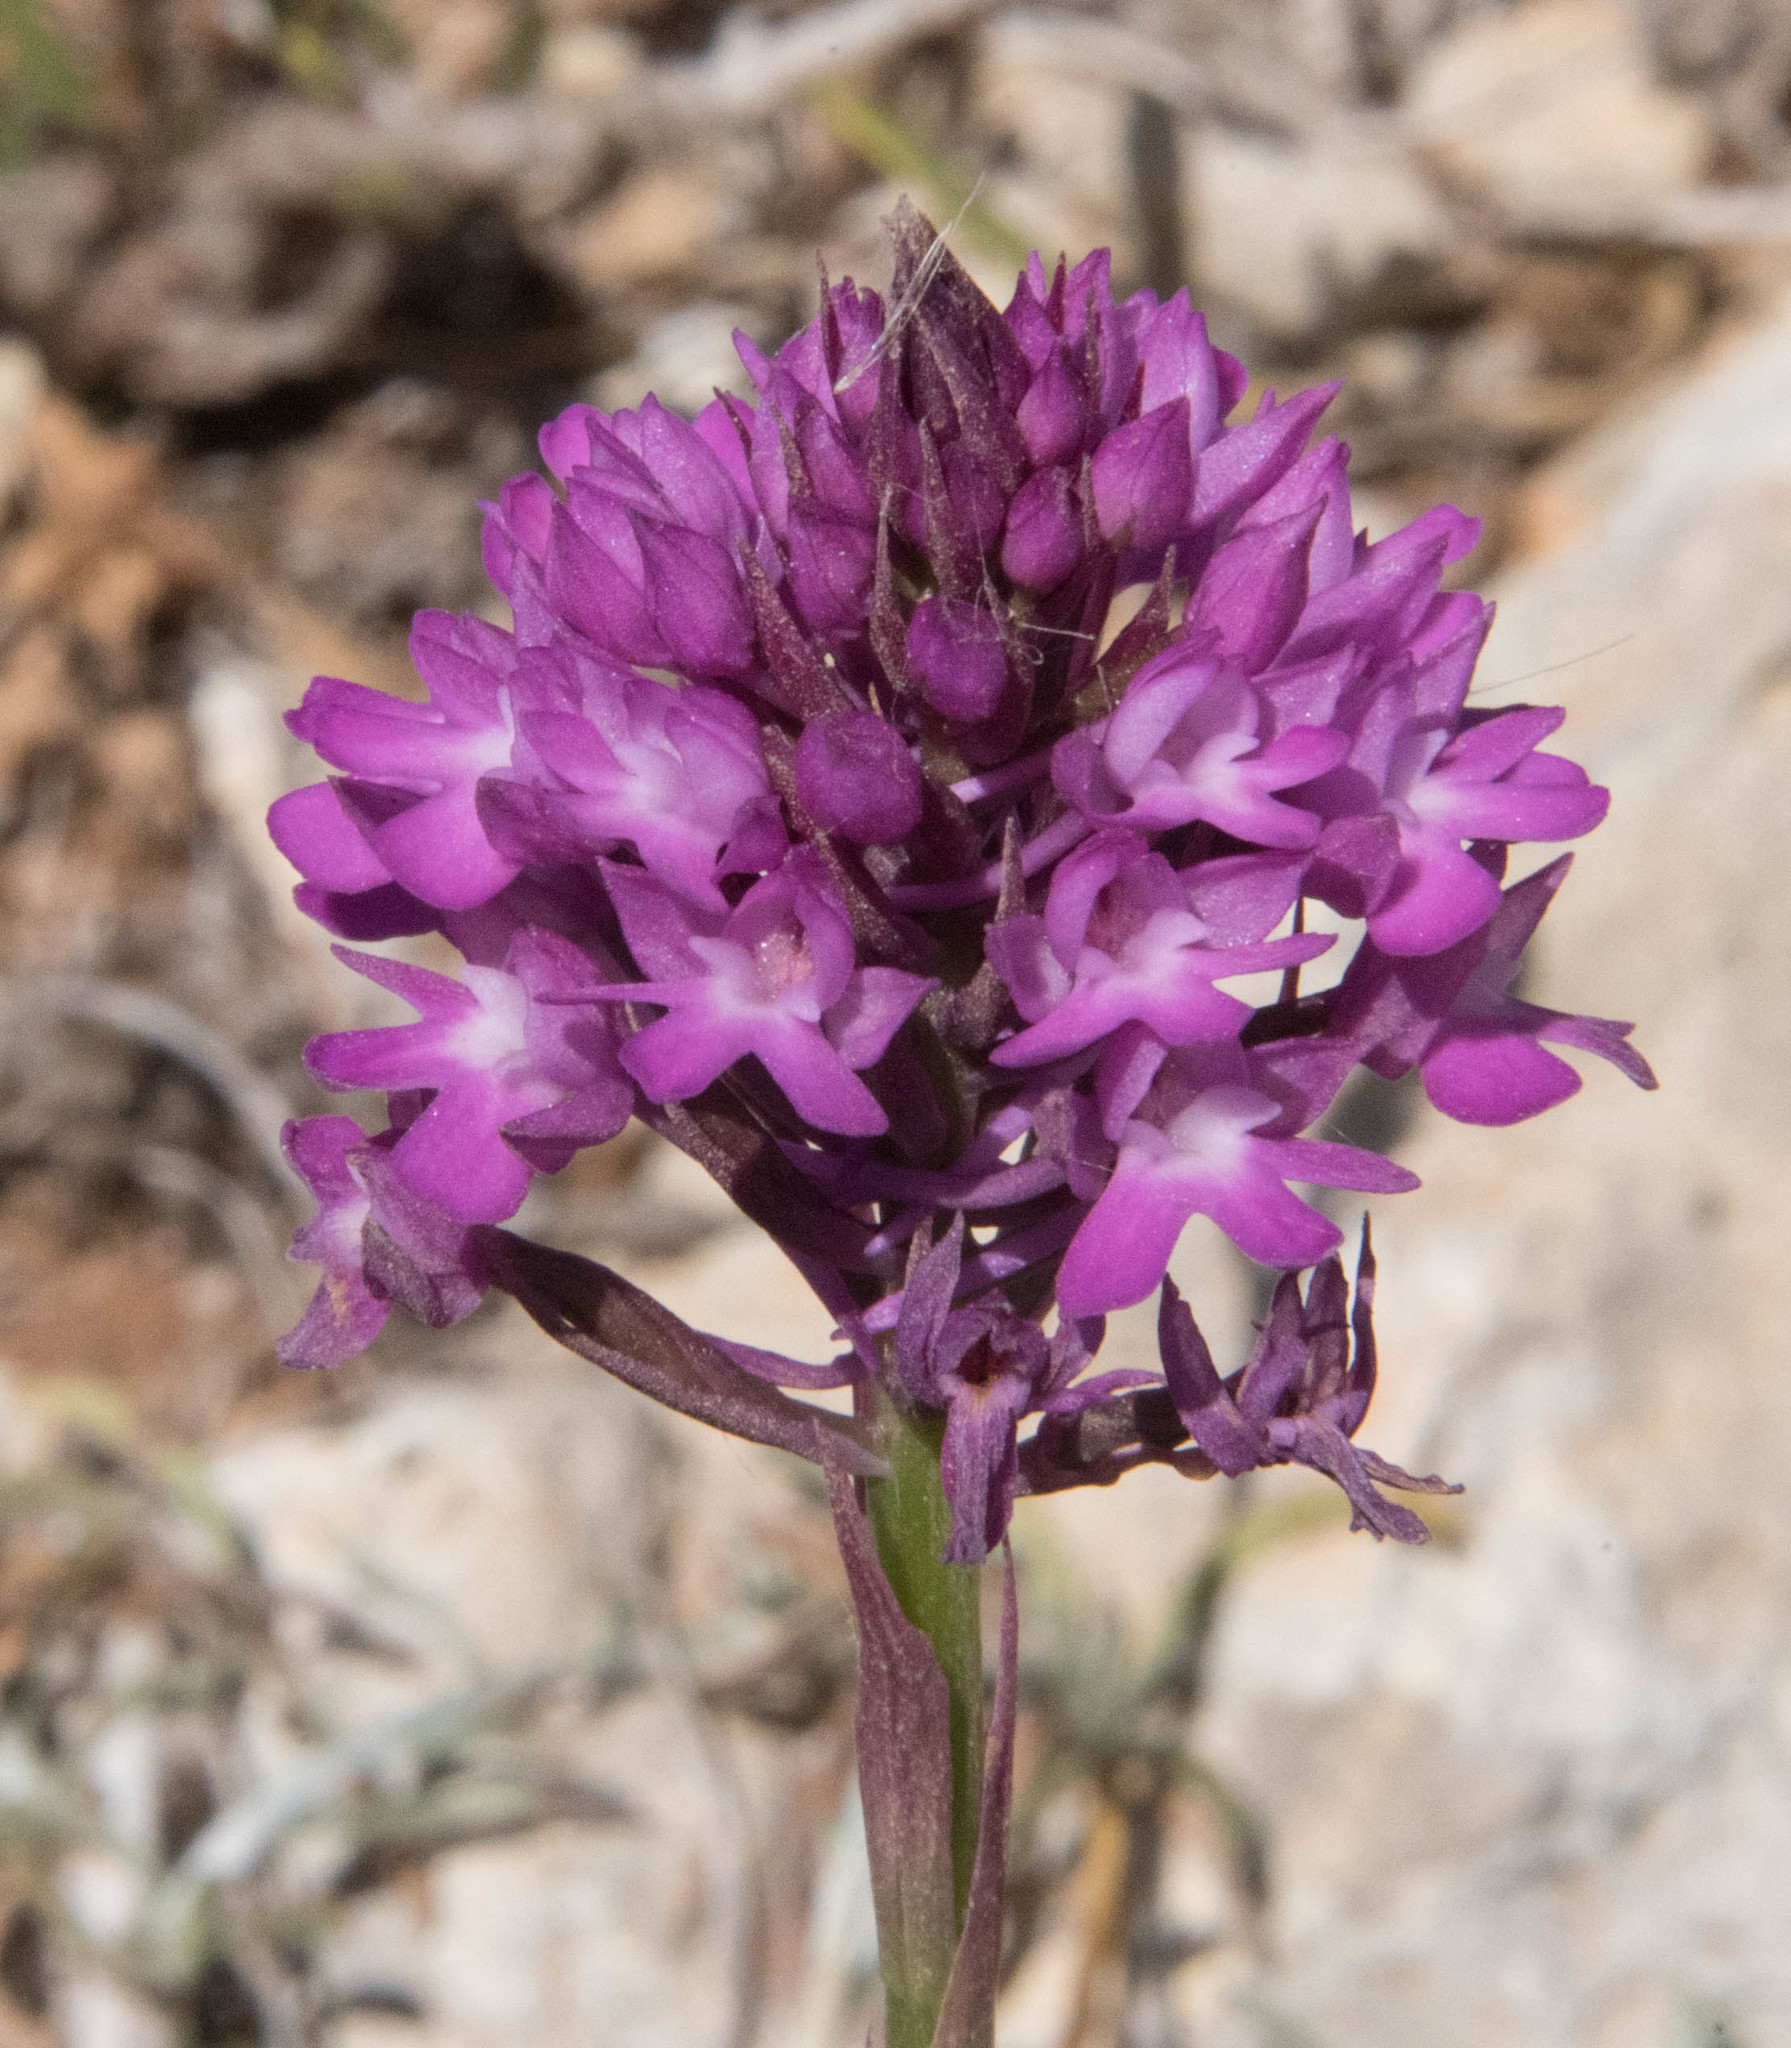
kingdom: Plantae
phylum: Tracheophyta
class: Liliopsida
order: Asparagales
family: Orchidaceae
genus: Anacamptis
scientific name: Anacamptis pyramidalis
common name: Pyramidal orchid
